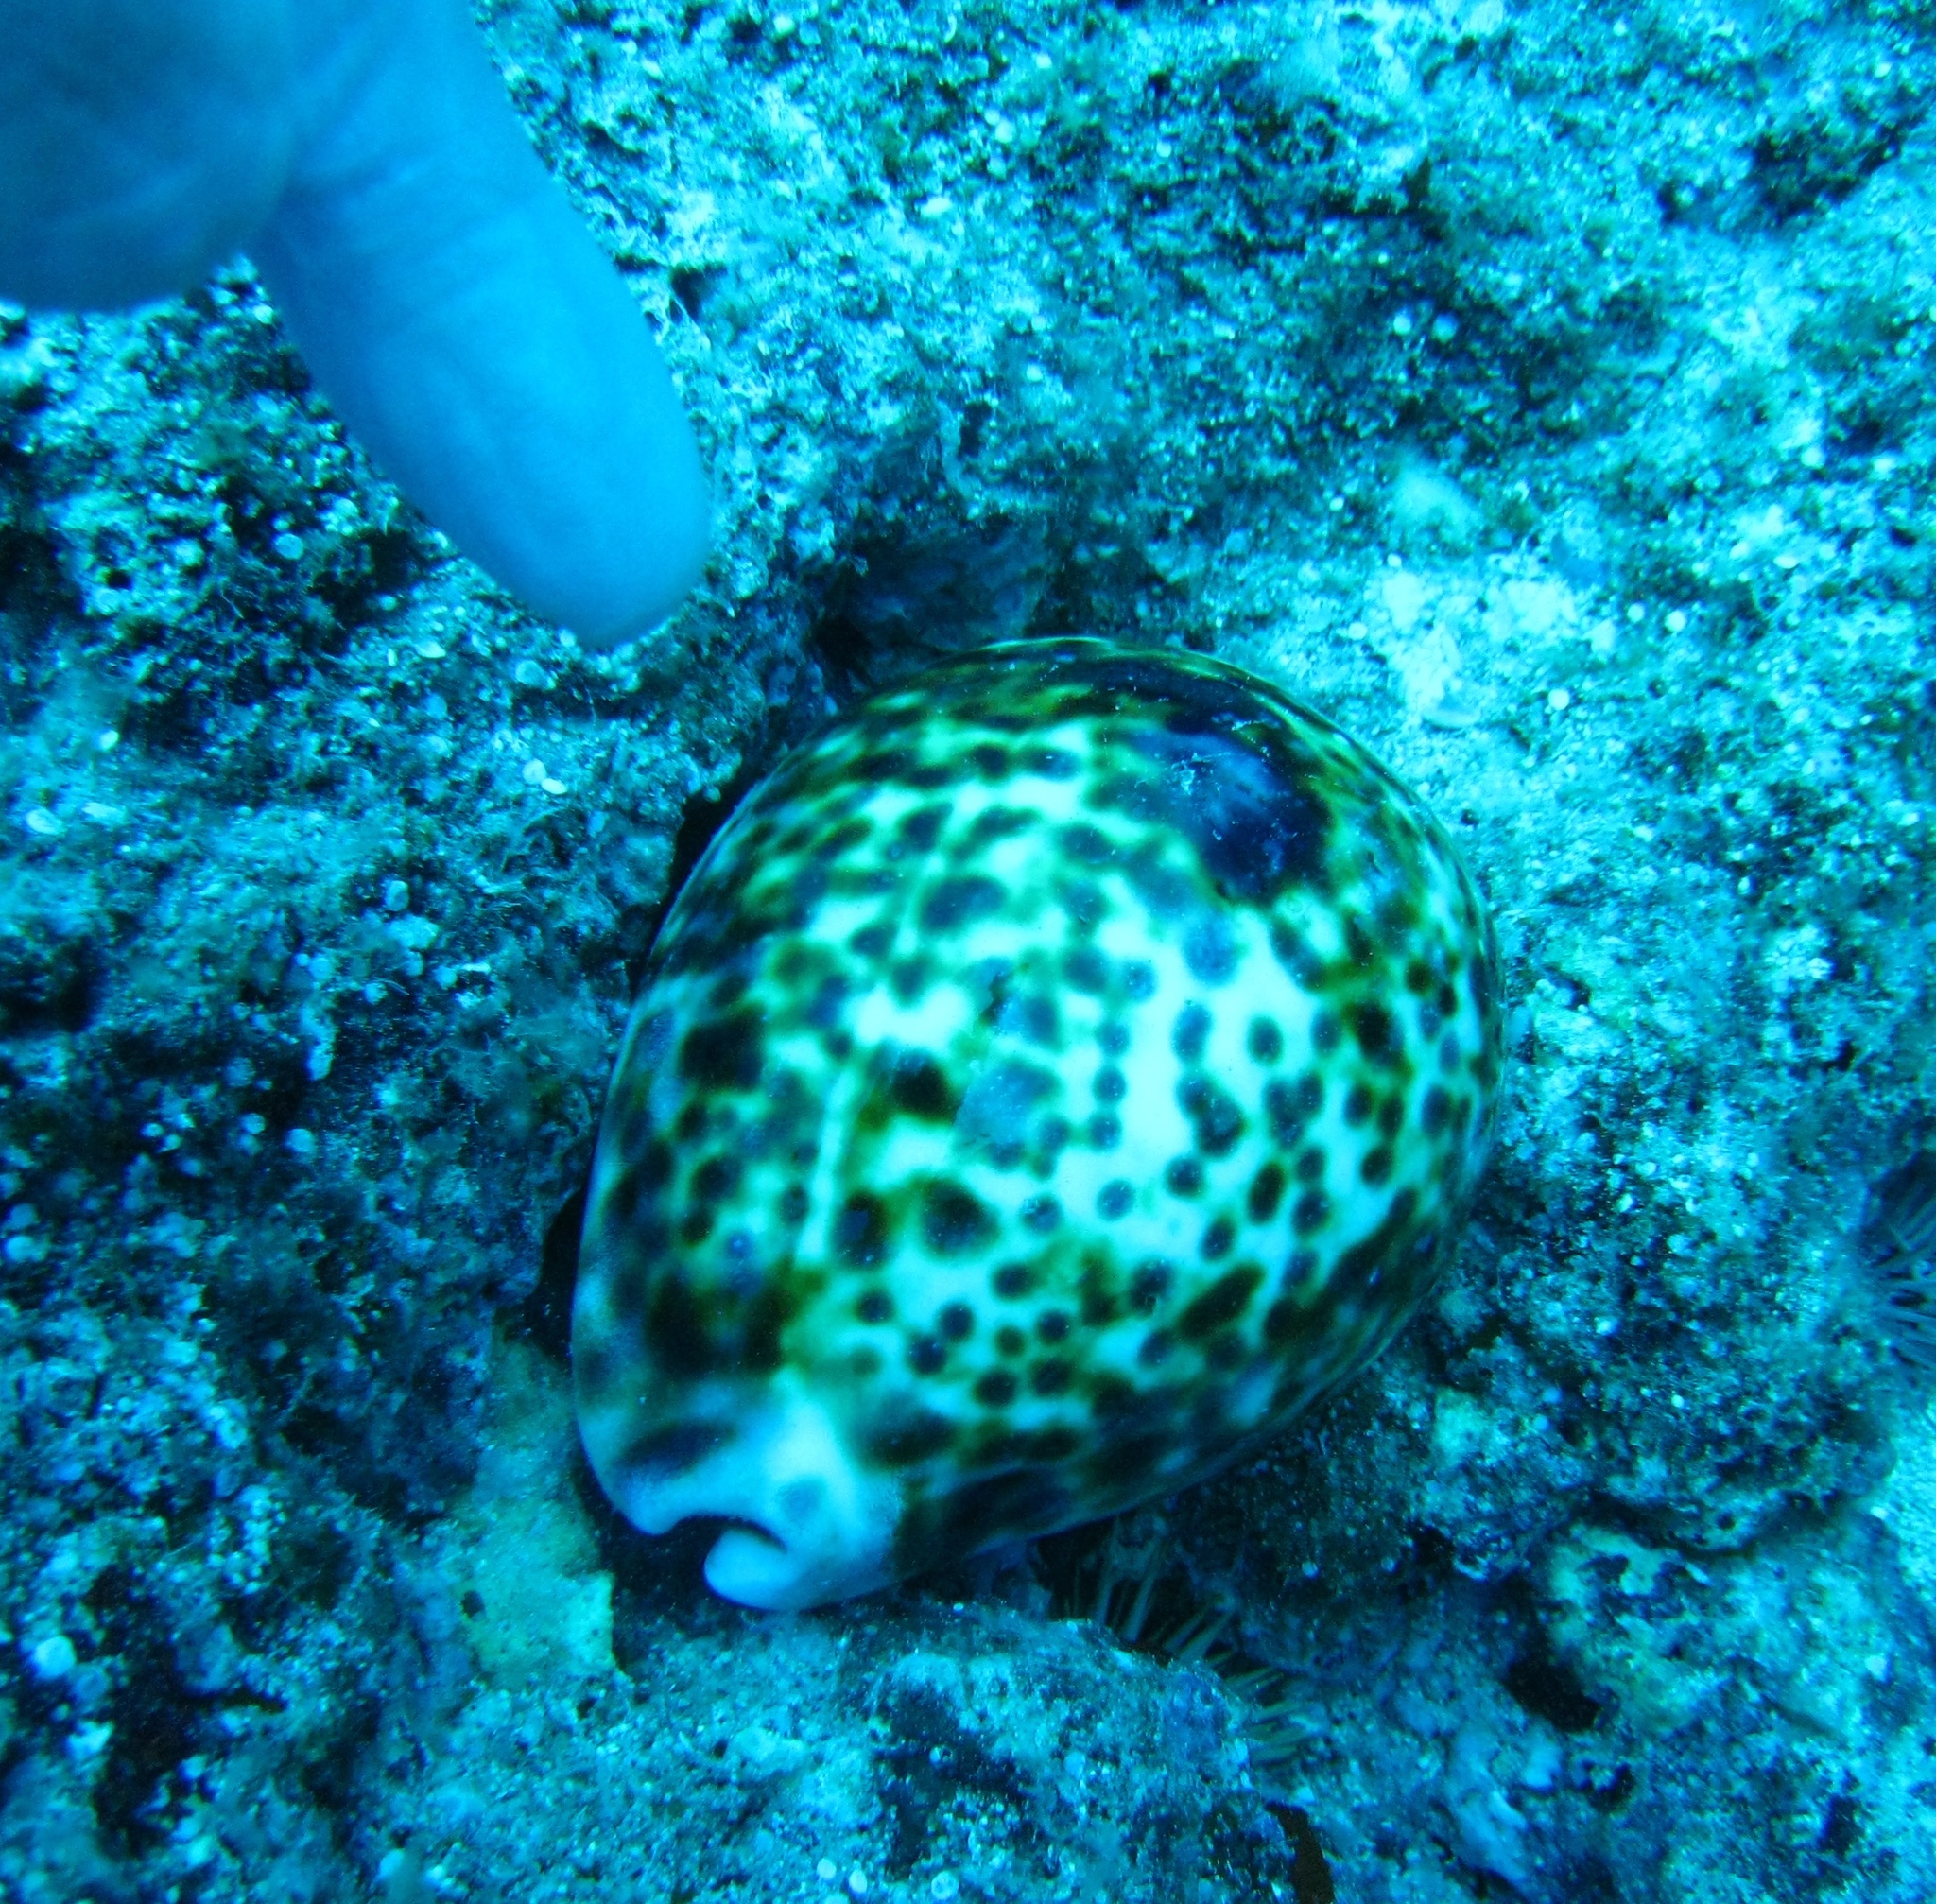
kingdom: Animalia
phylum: Mollusca
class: Gastropoda
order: Littorinimorpha
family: Cypraeidae
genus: Cypraea
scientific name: Cypraea tigris
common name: Tiger cowrie
